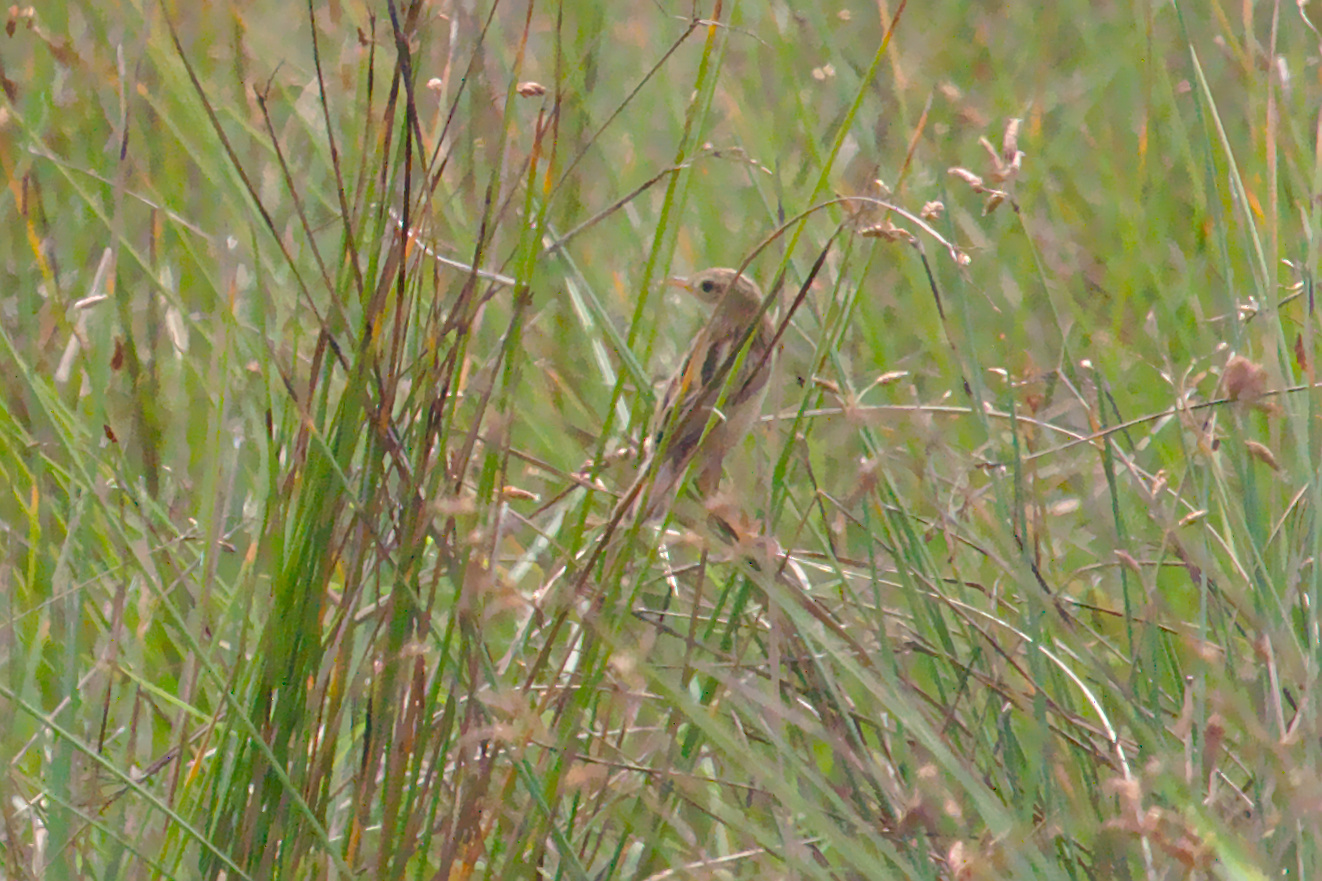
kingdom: Animalia
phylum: Chordata
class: Aves
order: Passeriformes
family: Cisticolidae
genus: Cisticola
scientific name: Cisticola juncidis
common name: Zitting cisticola
